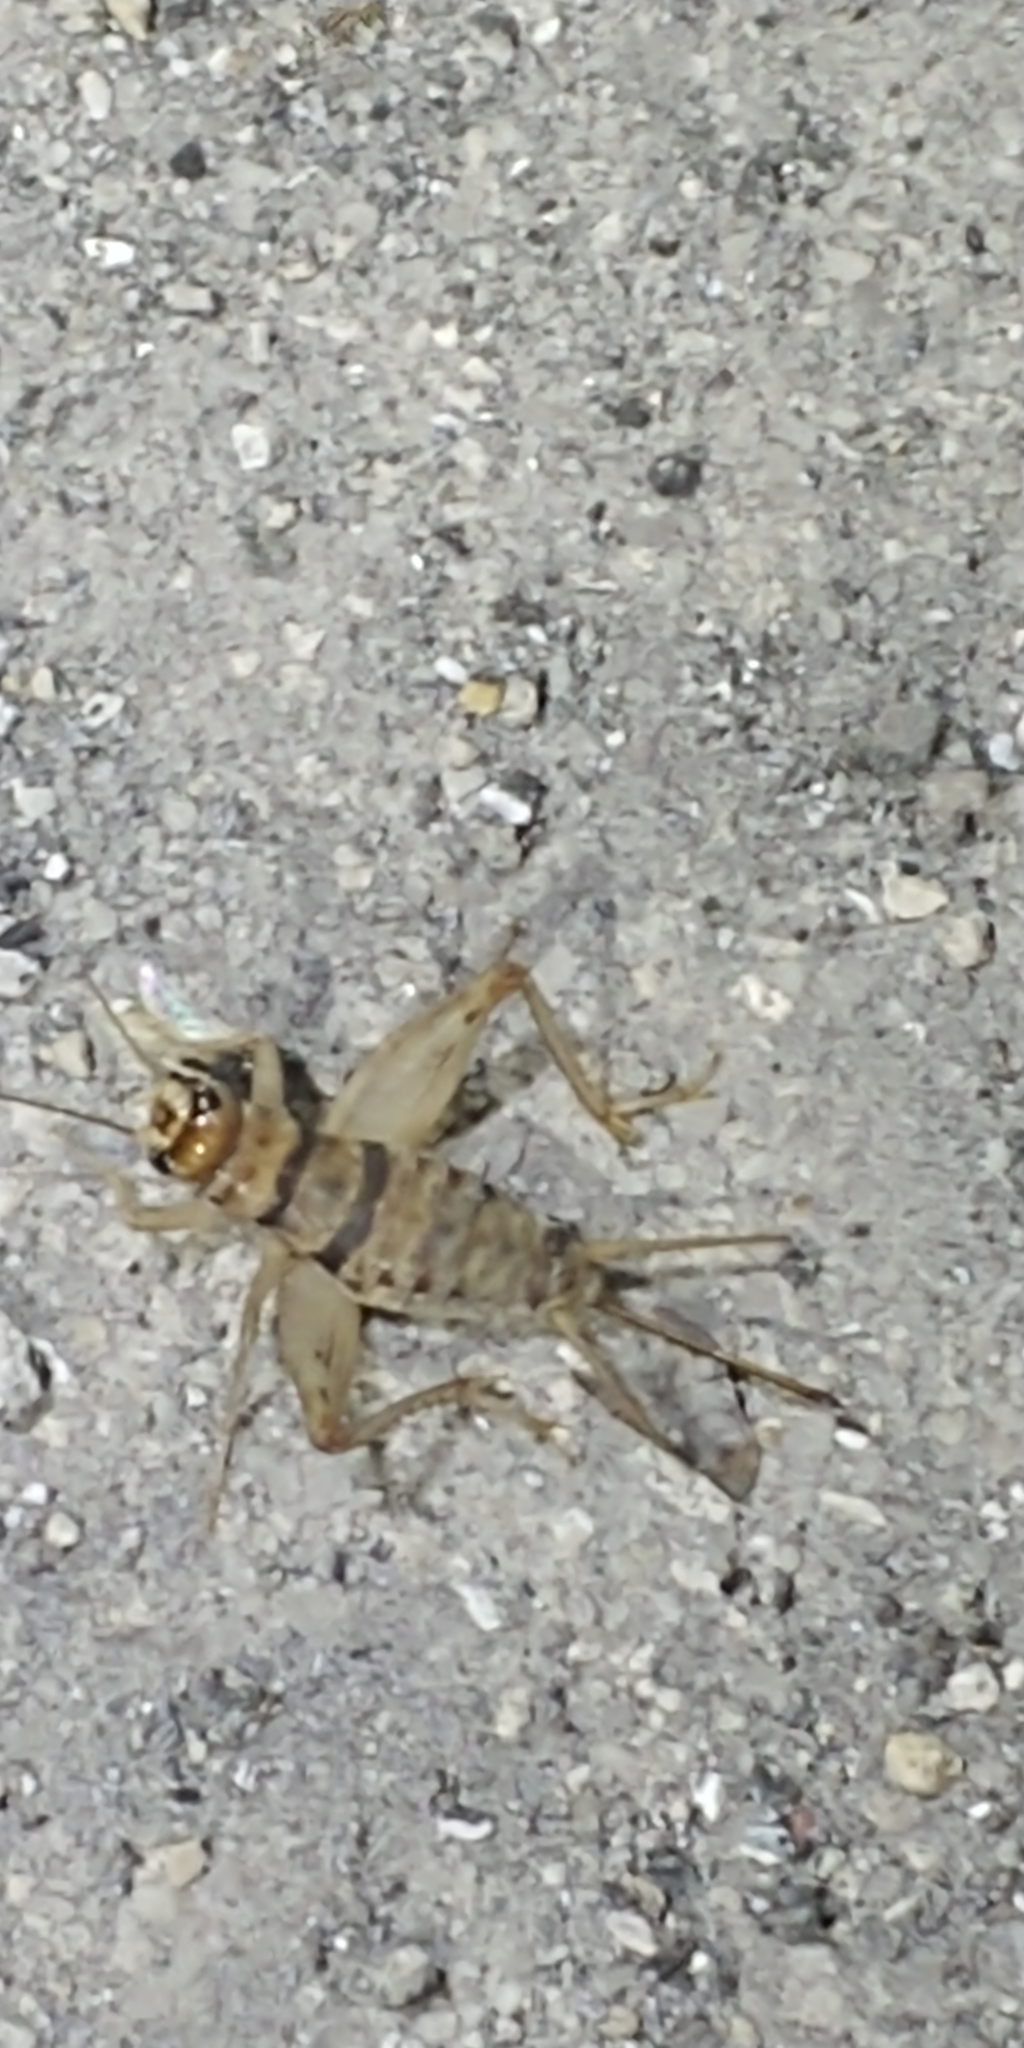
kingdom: Animalia
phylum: Arthropoda
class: Insecta
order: Orthoptera
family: Gryllidae
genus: Gryllodes
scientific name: Gryllodes sigillatus
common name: Tropical house cricket
